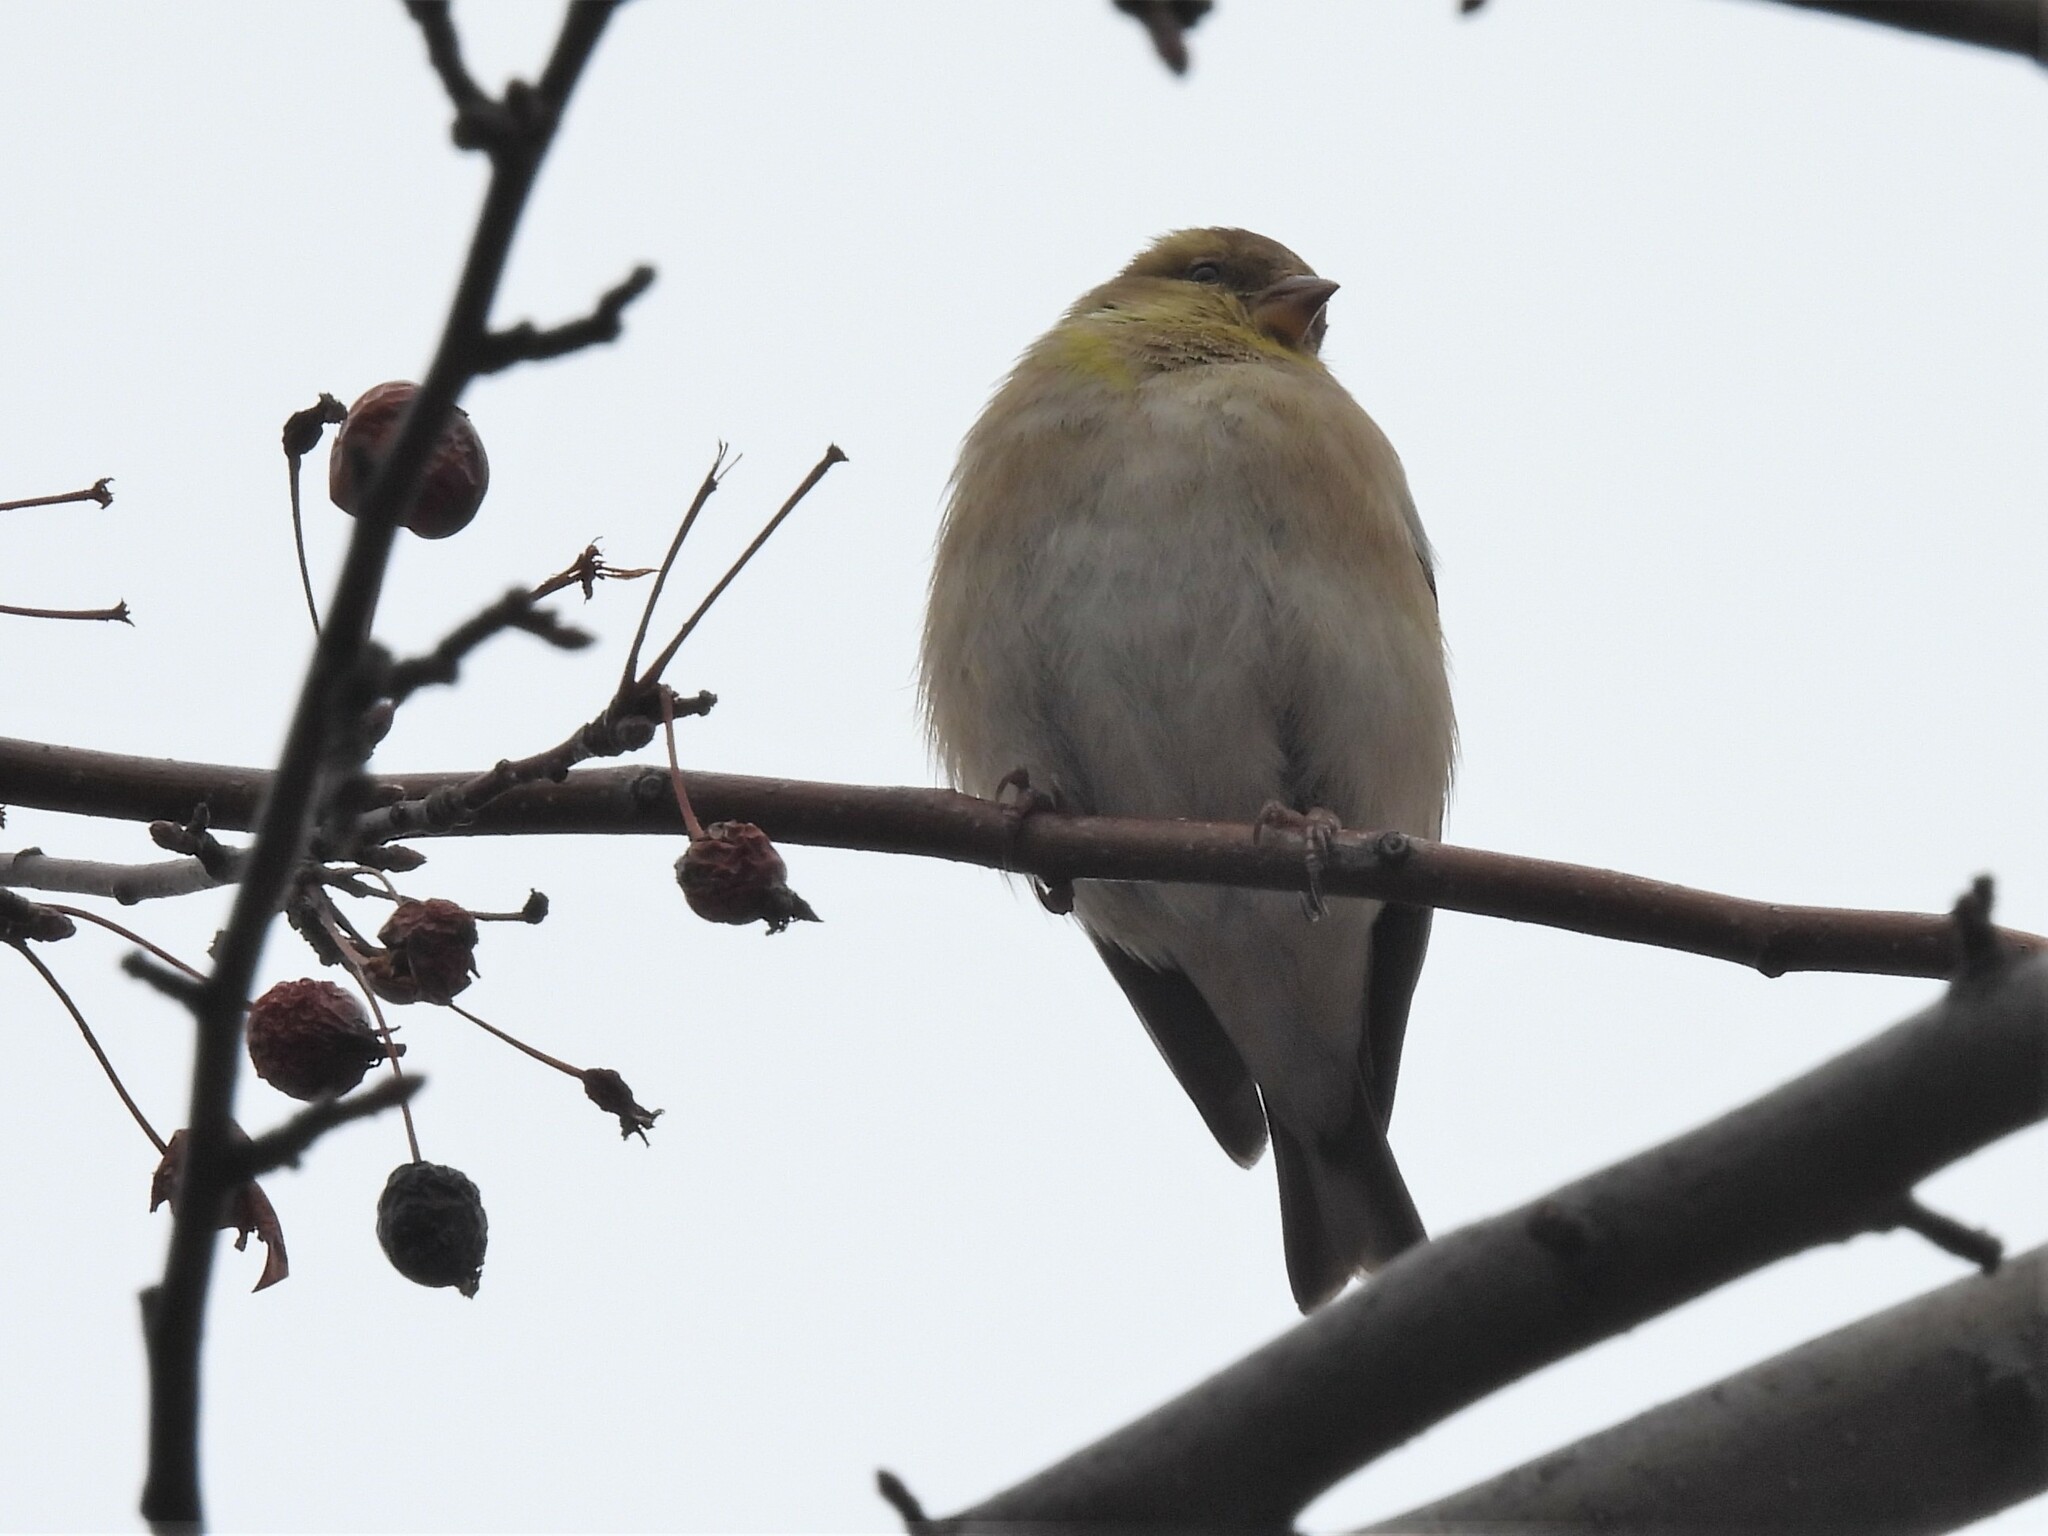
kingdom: Animalia
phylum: Chordata
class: Aves
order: Passeriformes
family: Fringillidae
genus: Spinus
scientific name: Spinus tristis
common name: American goldfinch
